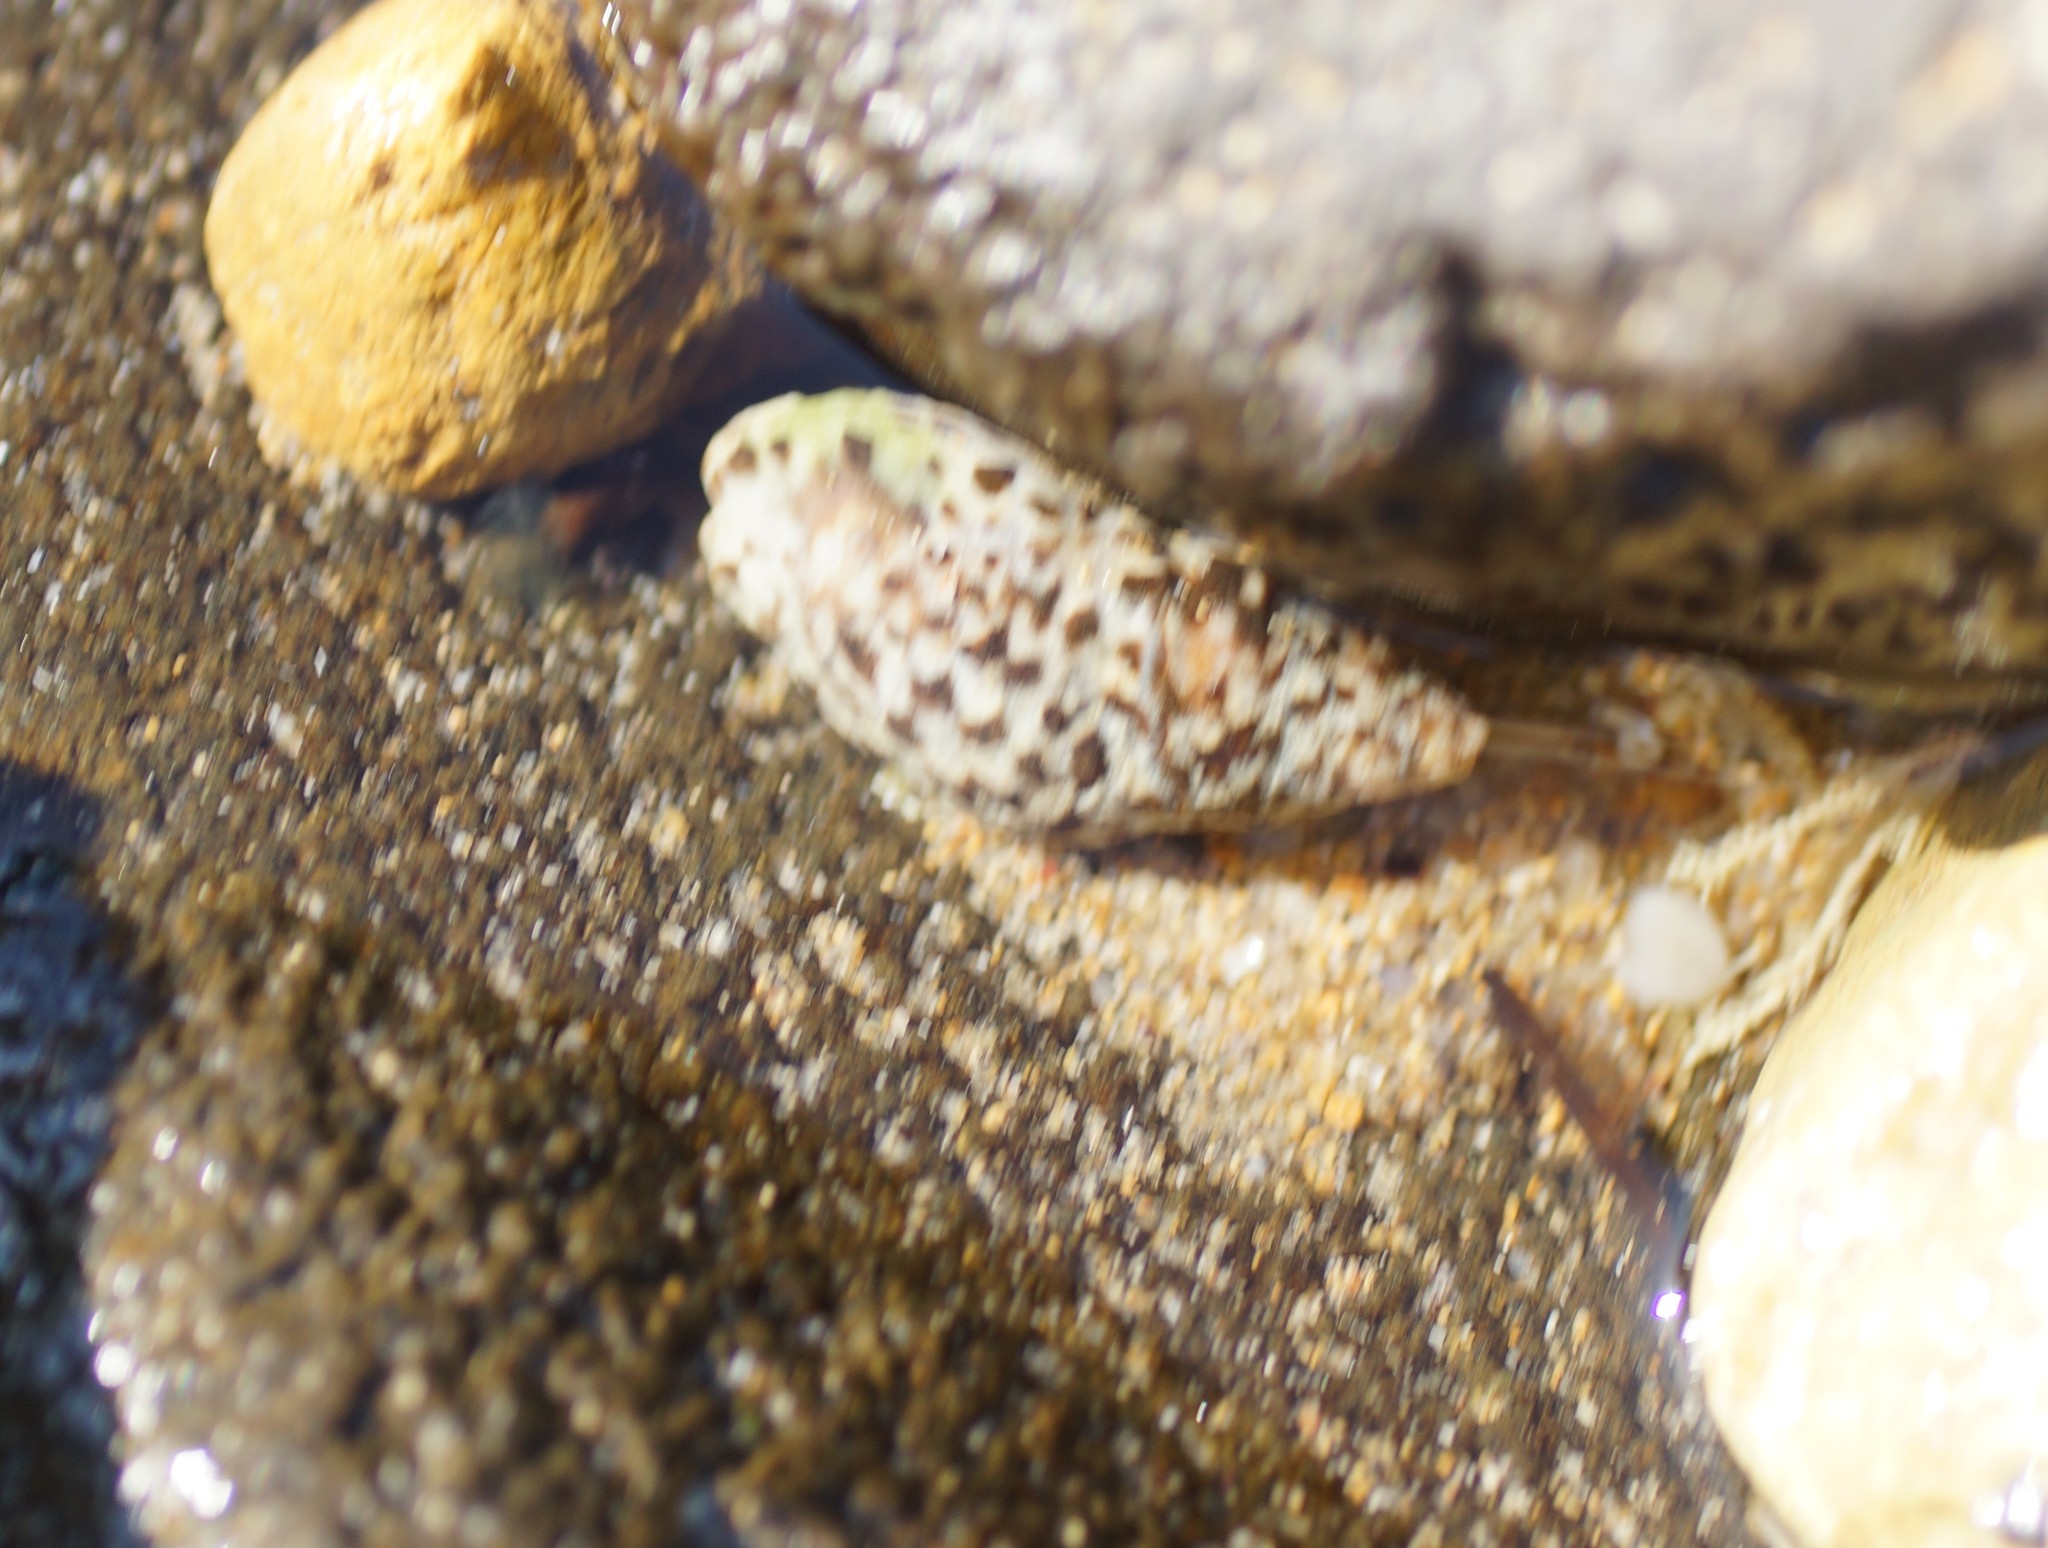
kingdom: Animalia
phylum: Mollusca
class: Gastropoda
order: Neogastropoda
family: Cominellidae
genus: Cominella
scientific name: Cominella lineolata
